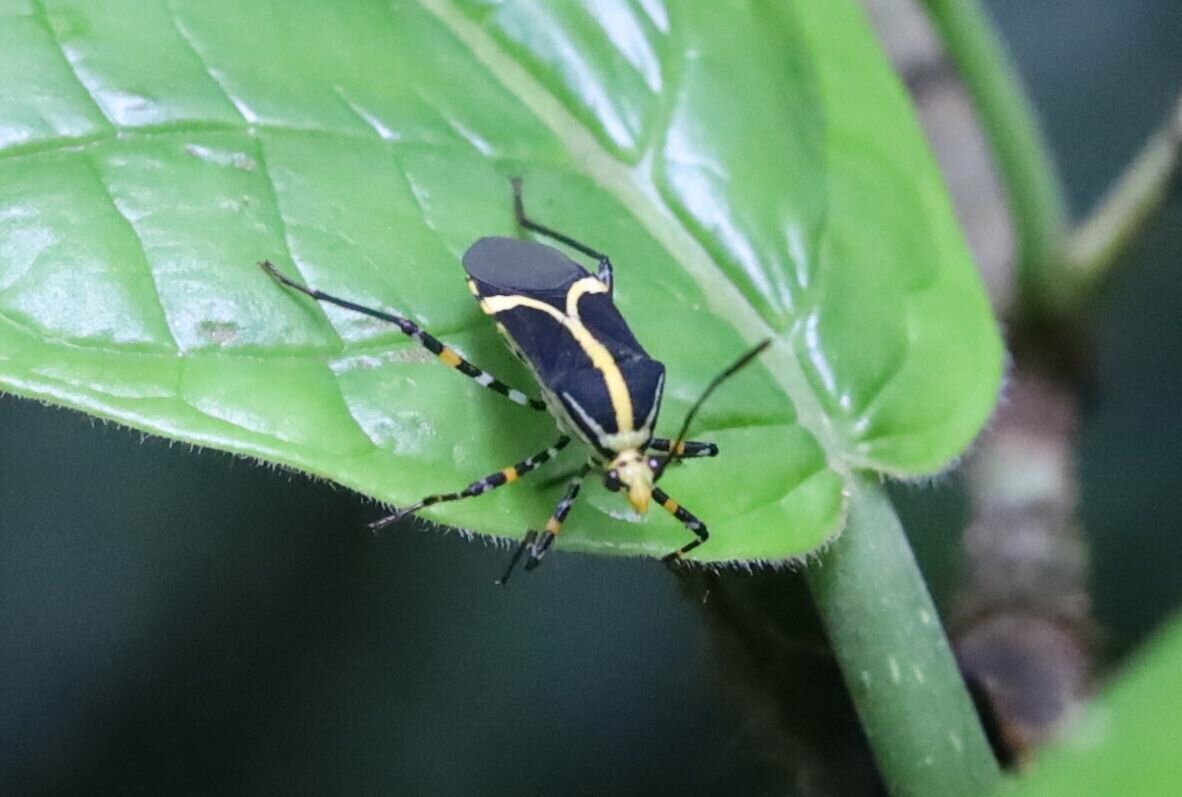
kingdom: Animalia
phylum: Arthropoda
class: Insecta
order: Hemiptera
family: Coreidae
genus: Hypselonotus
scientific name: Hypselonotus linea
